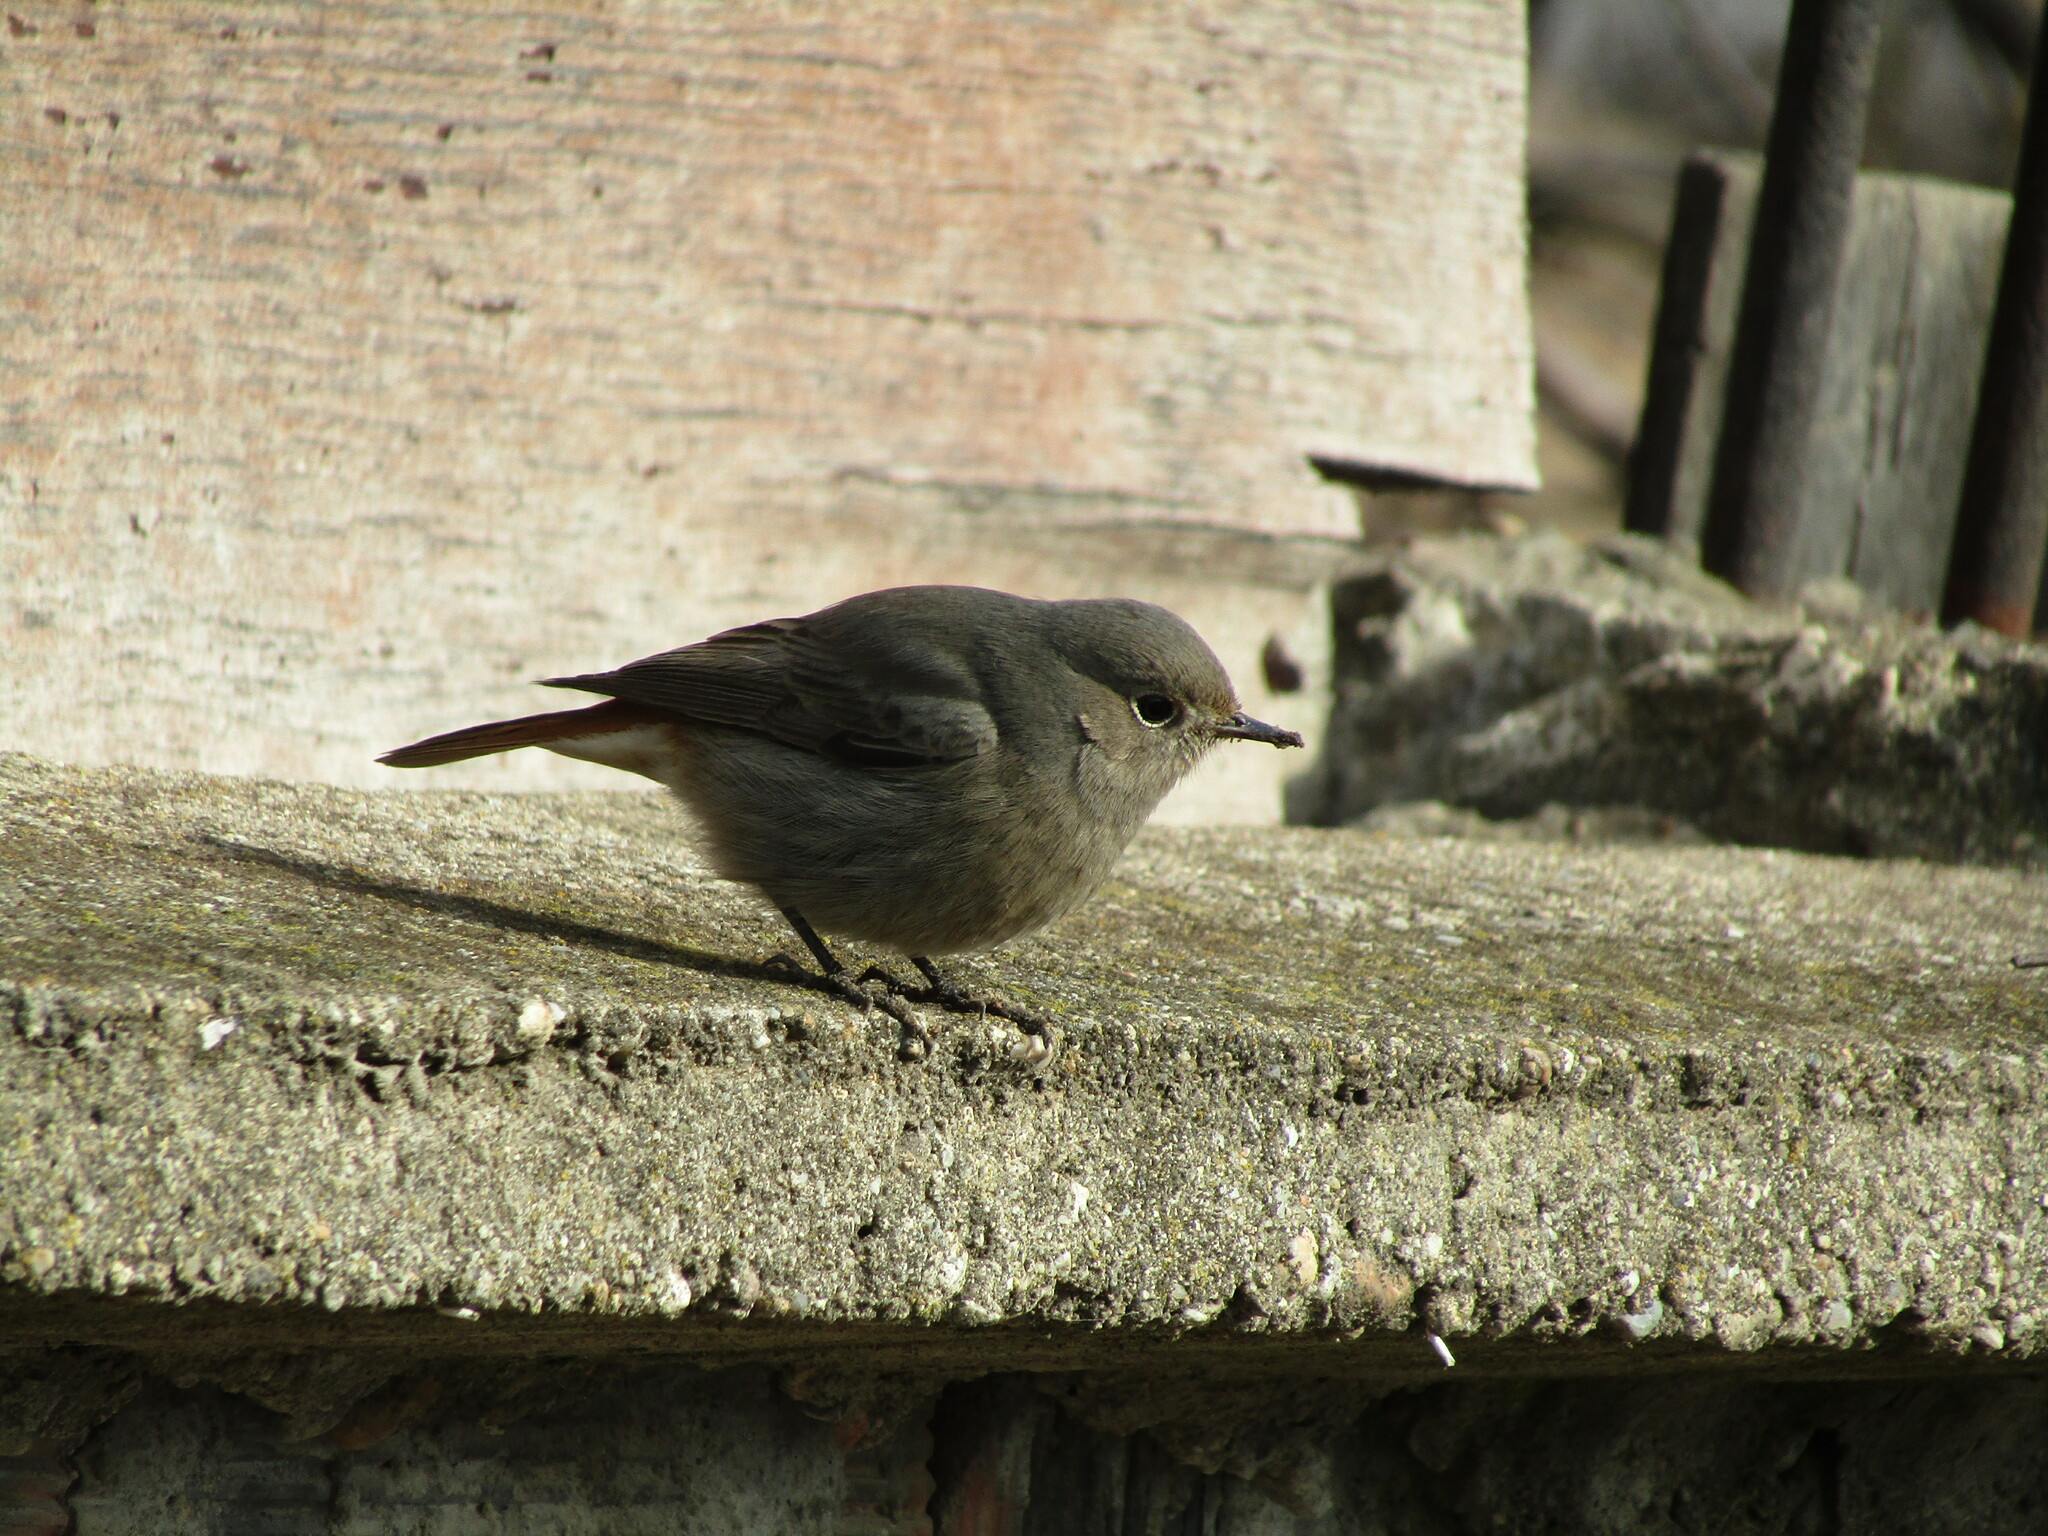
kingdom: Animalia
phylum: Chordata
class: Aves
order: Passeriformes
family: Muscicapidae
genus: Phoenicurus
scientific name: Phoenicurus ochruros
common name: Black redstart
